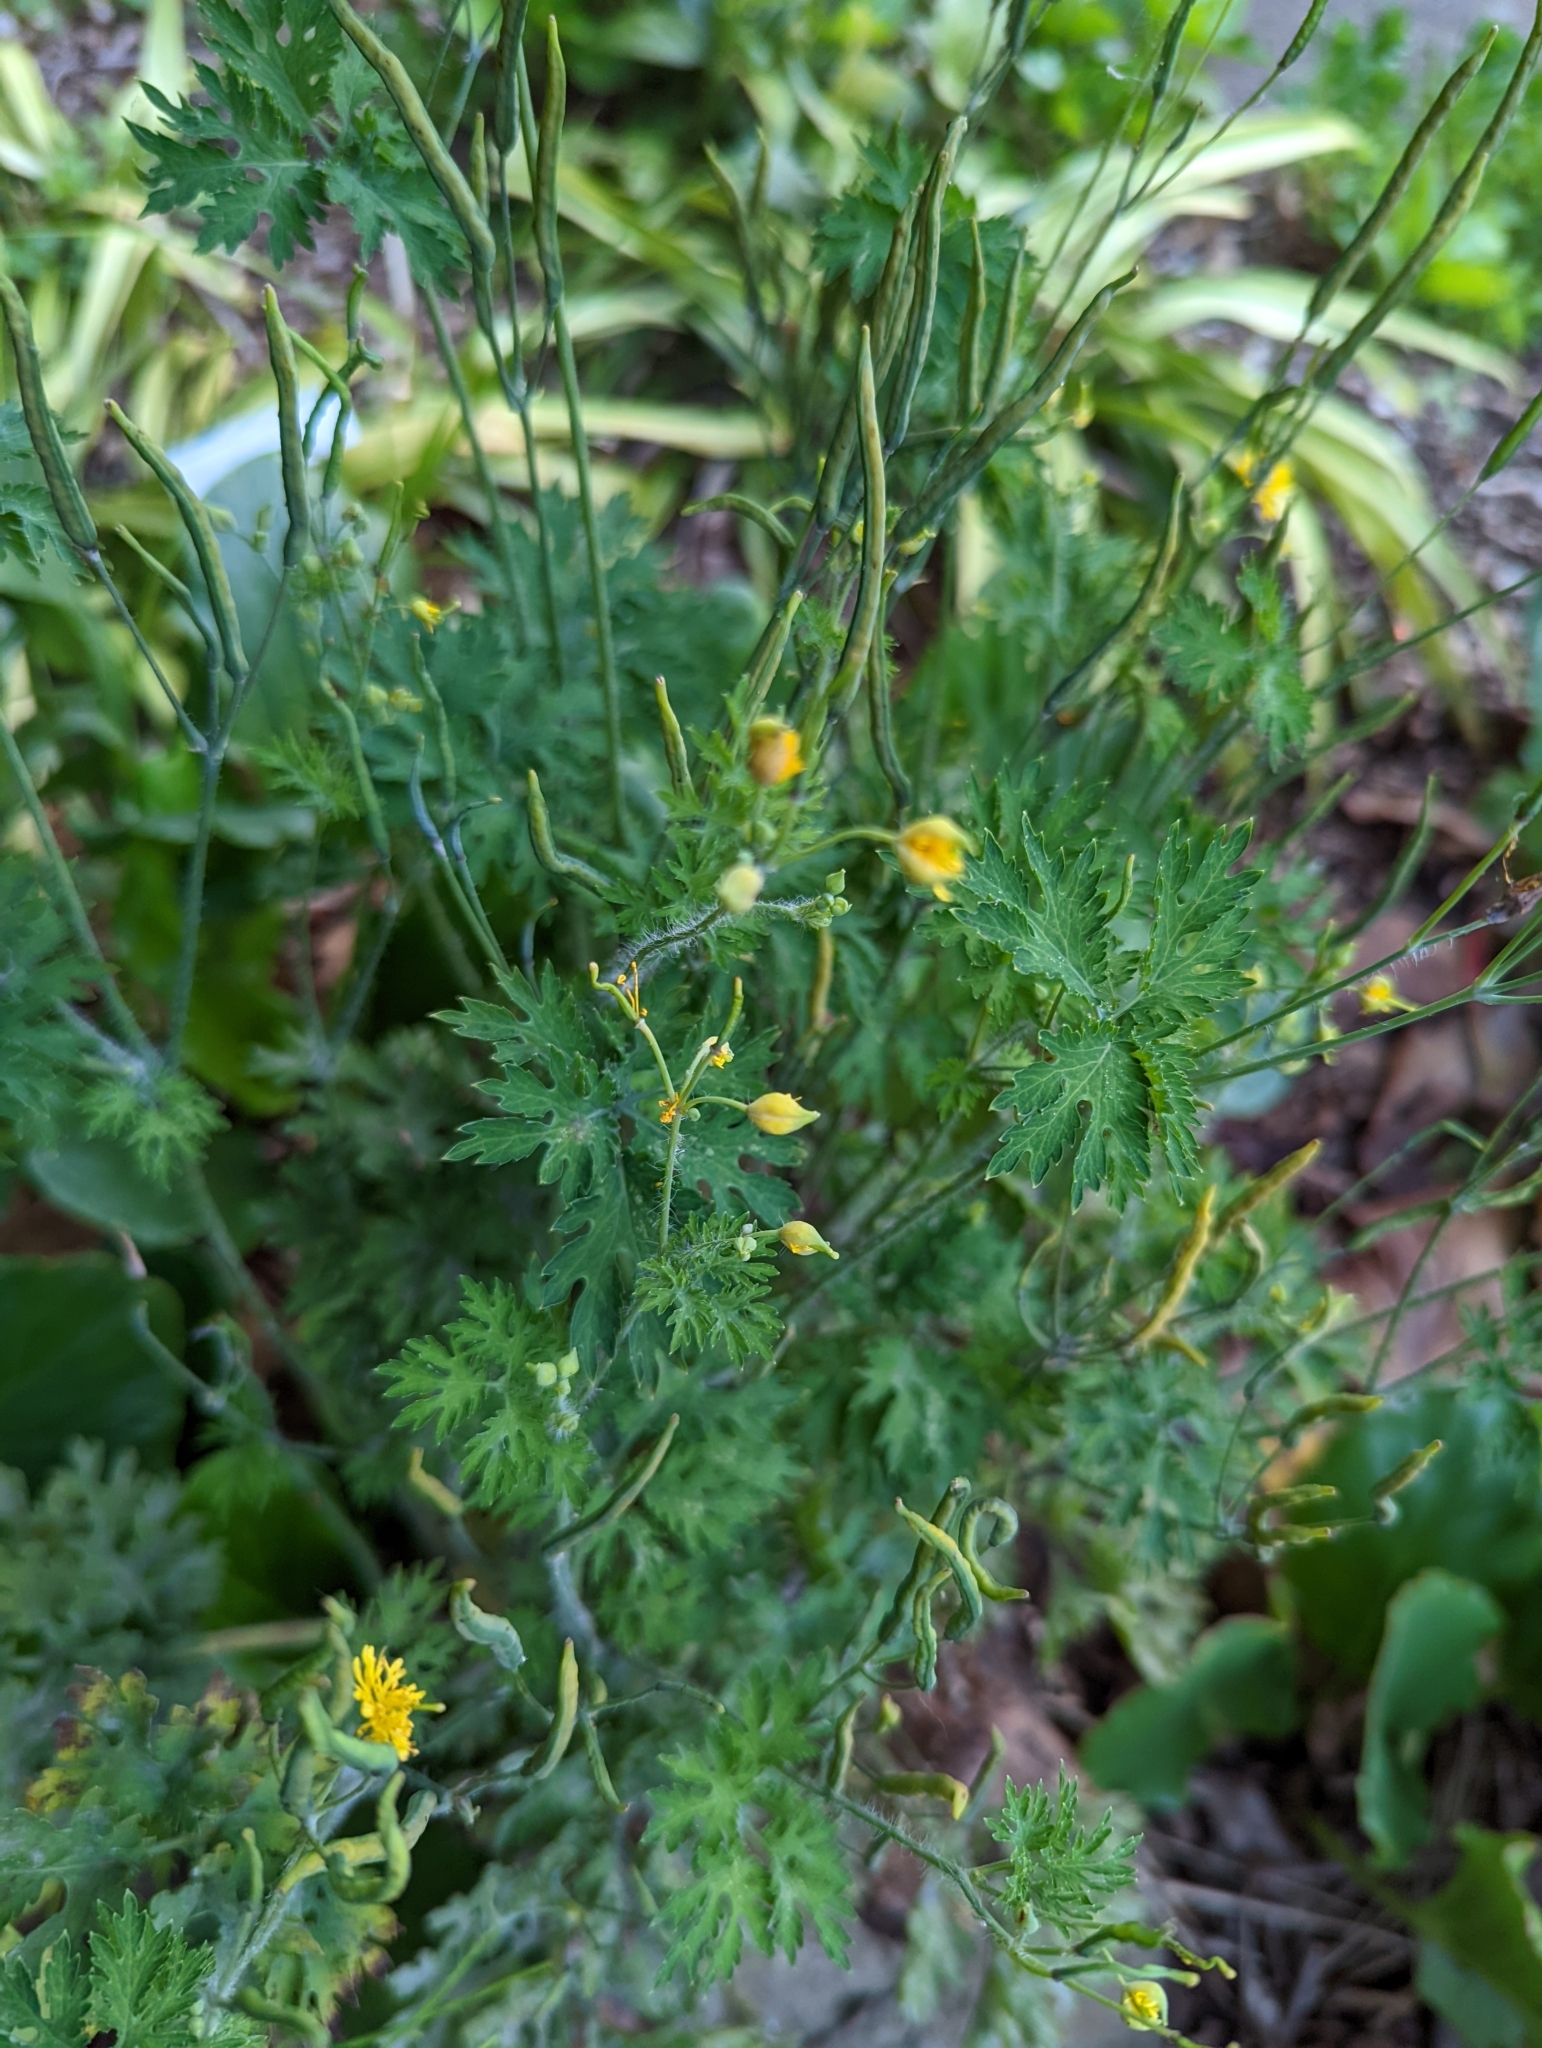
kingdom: Plantae
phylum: Tracheophyta
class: Magnoliopsida
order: Ranunculales
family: Papaveraceae
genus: Chelidonium
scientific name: Chelidonium majus
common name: Greater celandine
